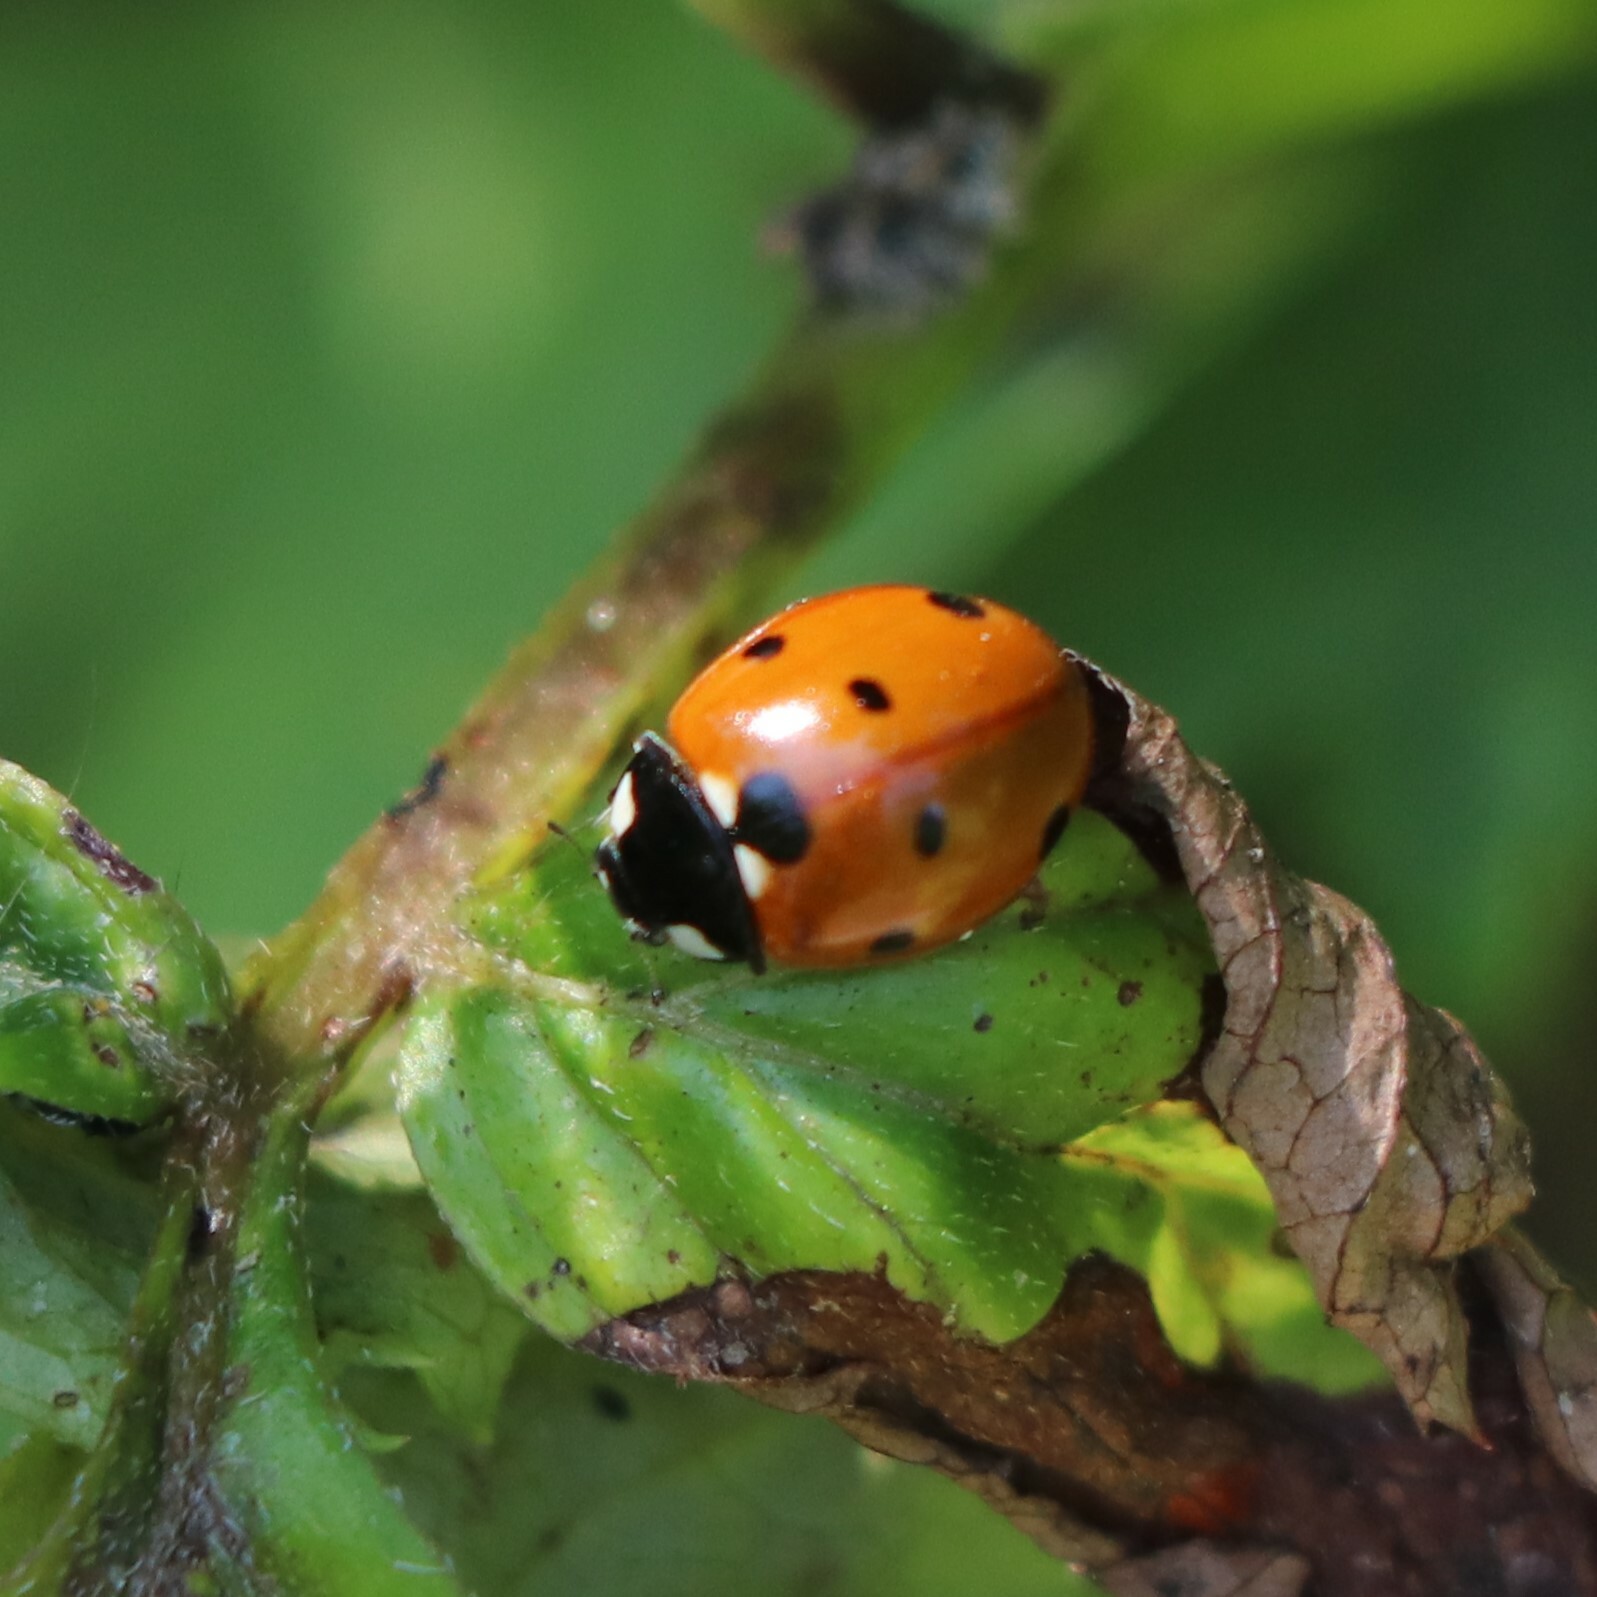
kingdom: Animalia
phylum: Arthropoda
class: Insecta
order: Coleoptera
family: Coccinellidae
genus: Coccinella
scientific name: Coccinella septempunctata
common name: Sevenspotted lady beetle
